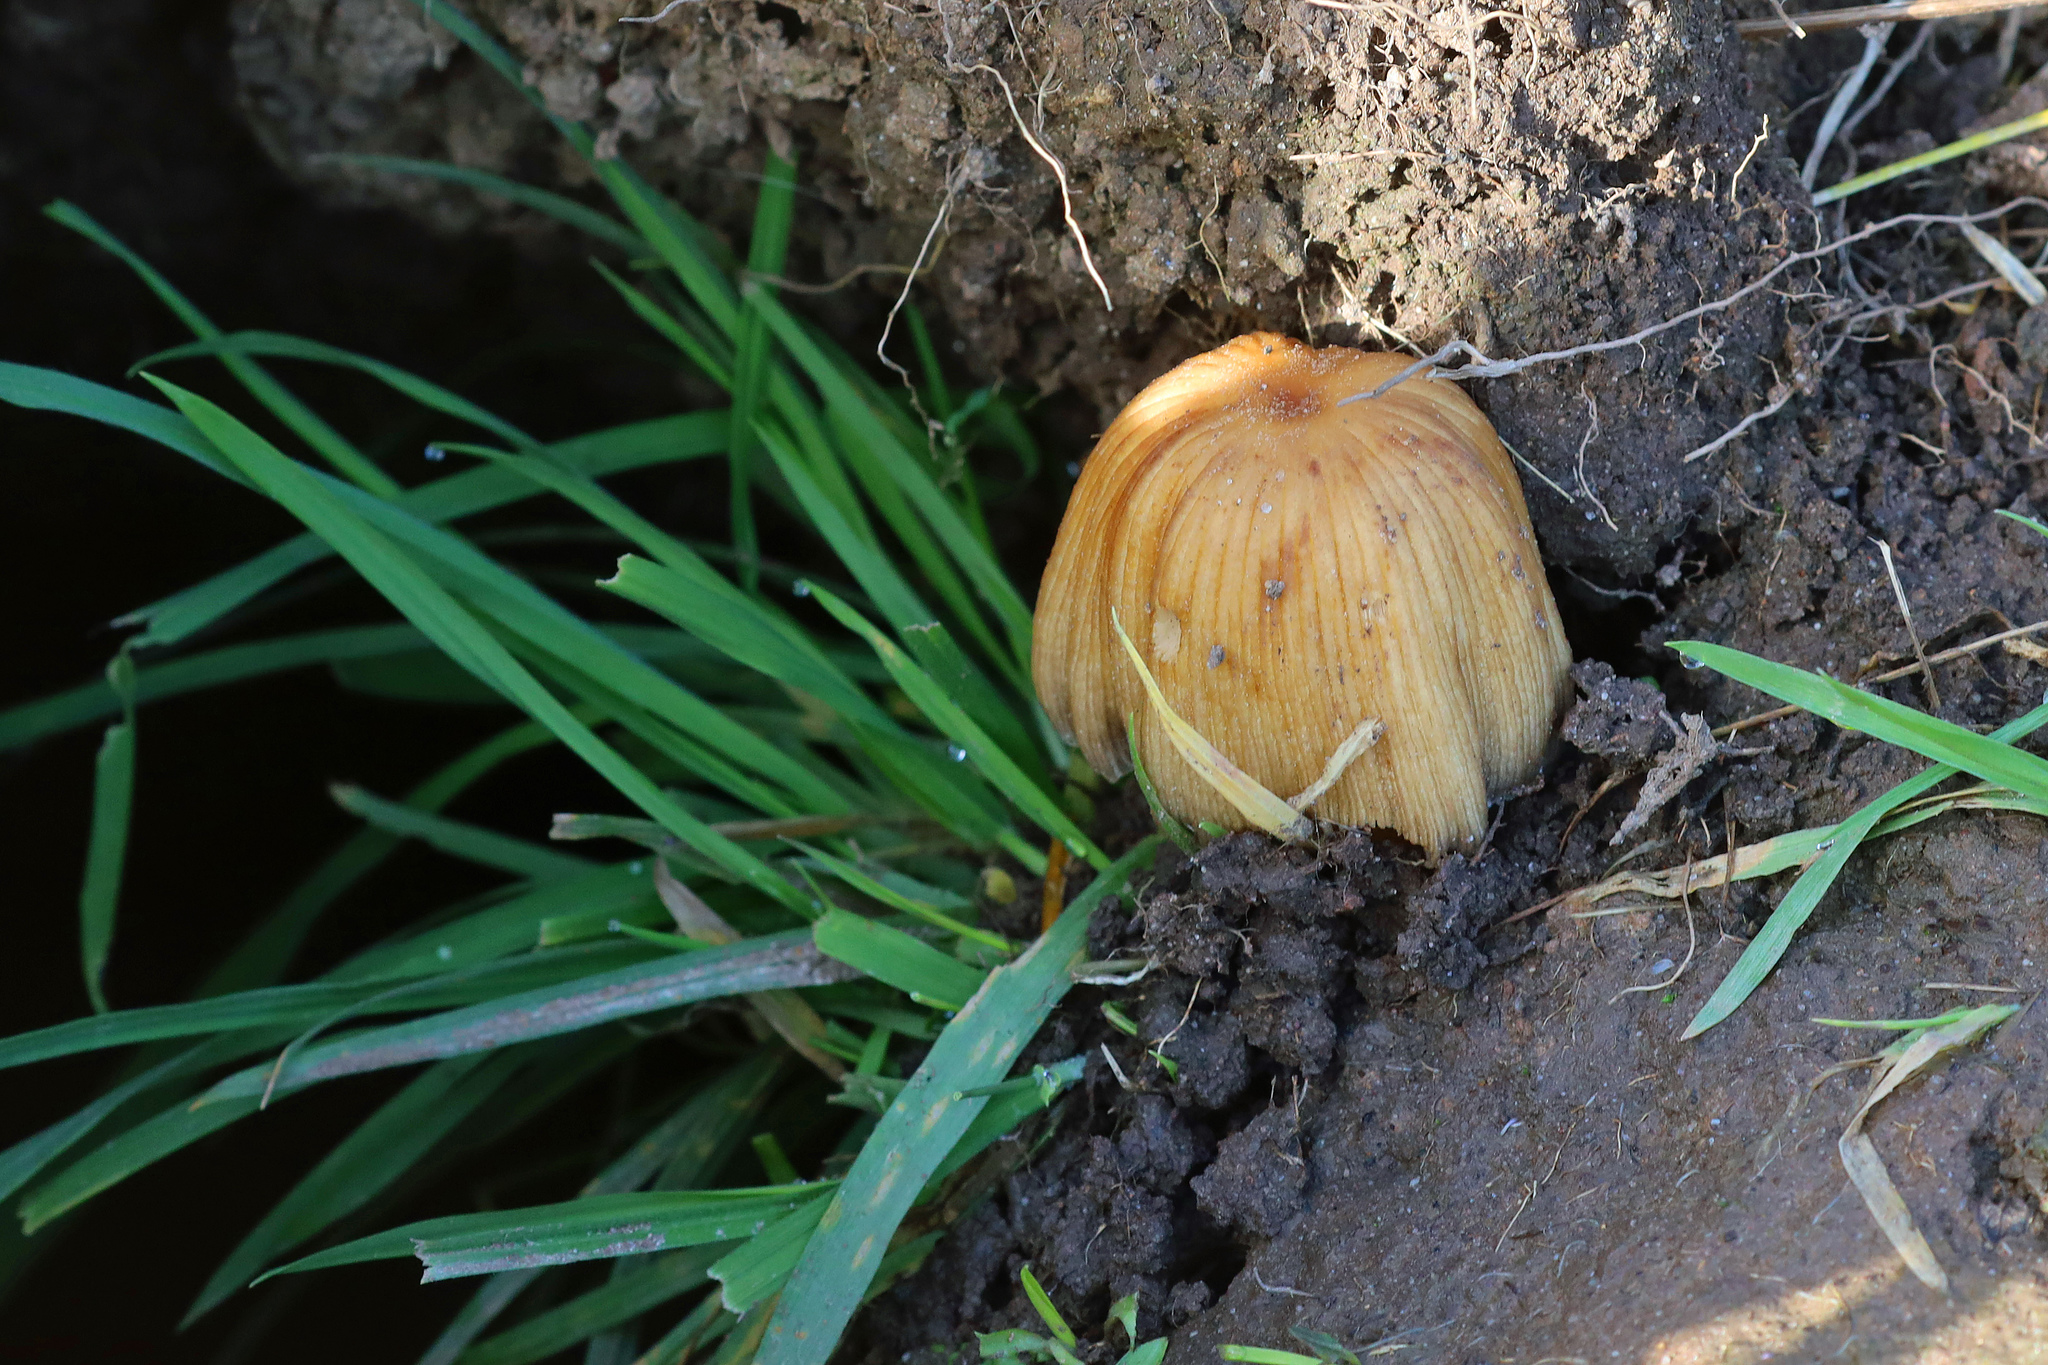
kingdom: Fungi
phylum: Basidiomycota
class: Agaricomycetes
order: Agaricales
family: Psathyrellaceae
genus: Coprinellus
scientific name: Coprinellus micaceus
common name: Glistening ink-cap
